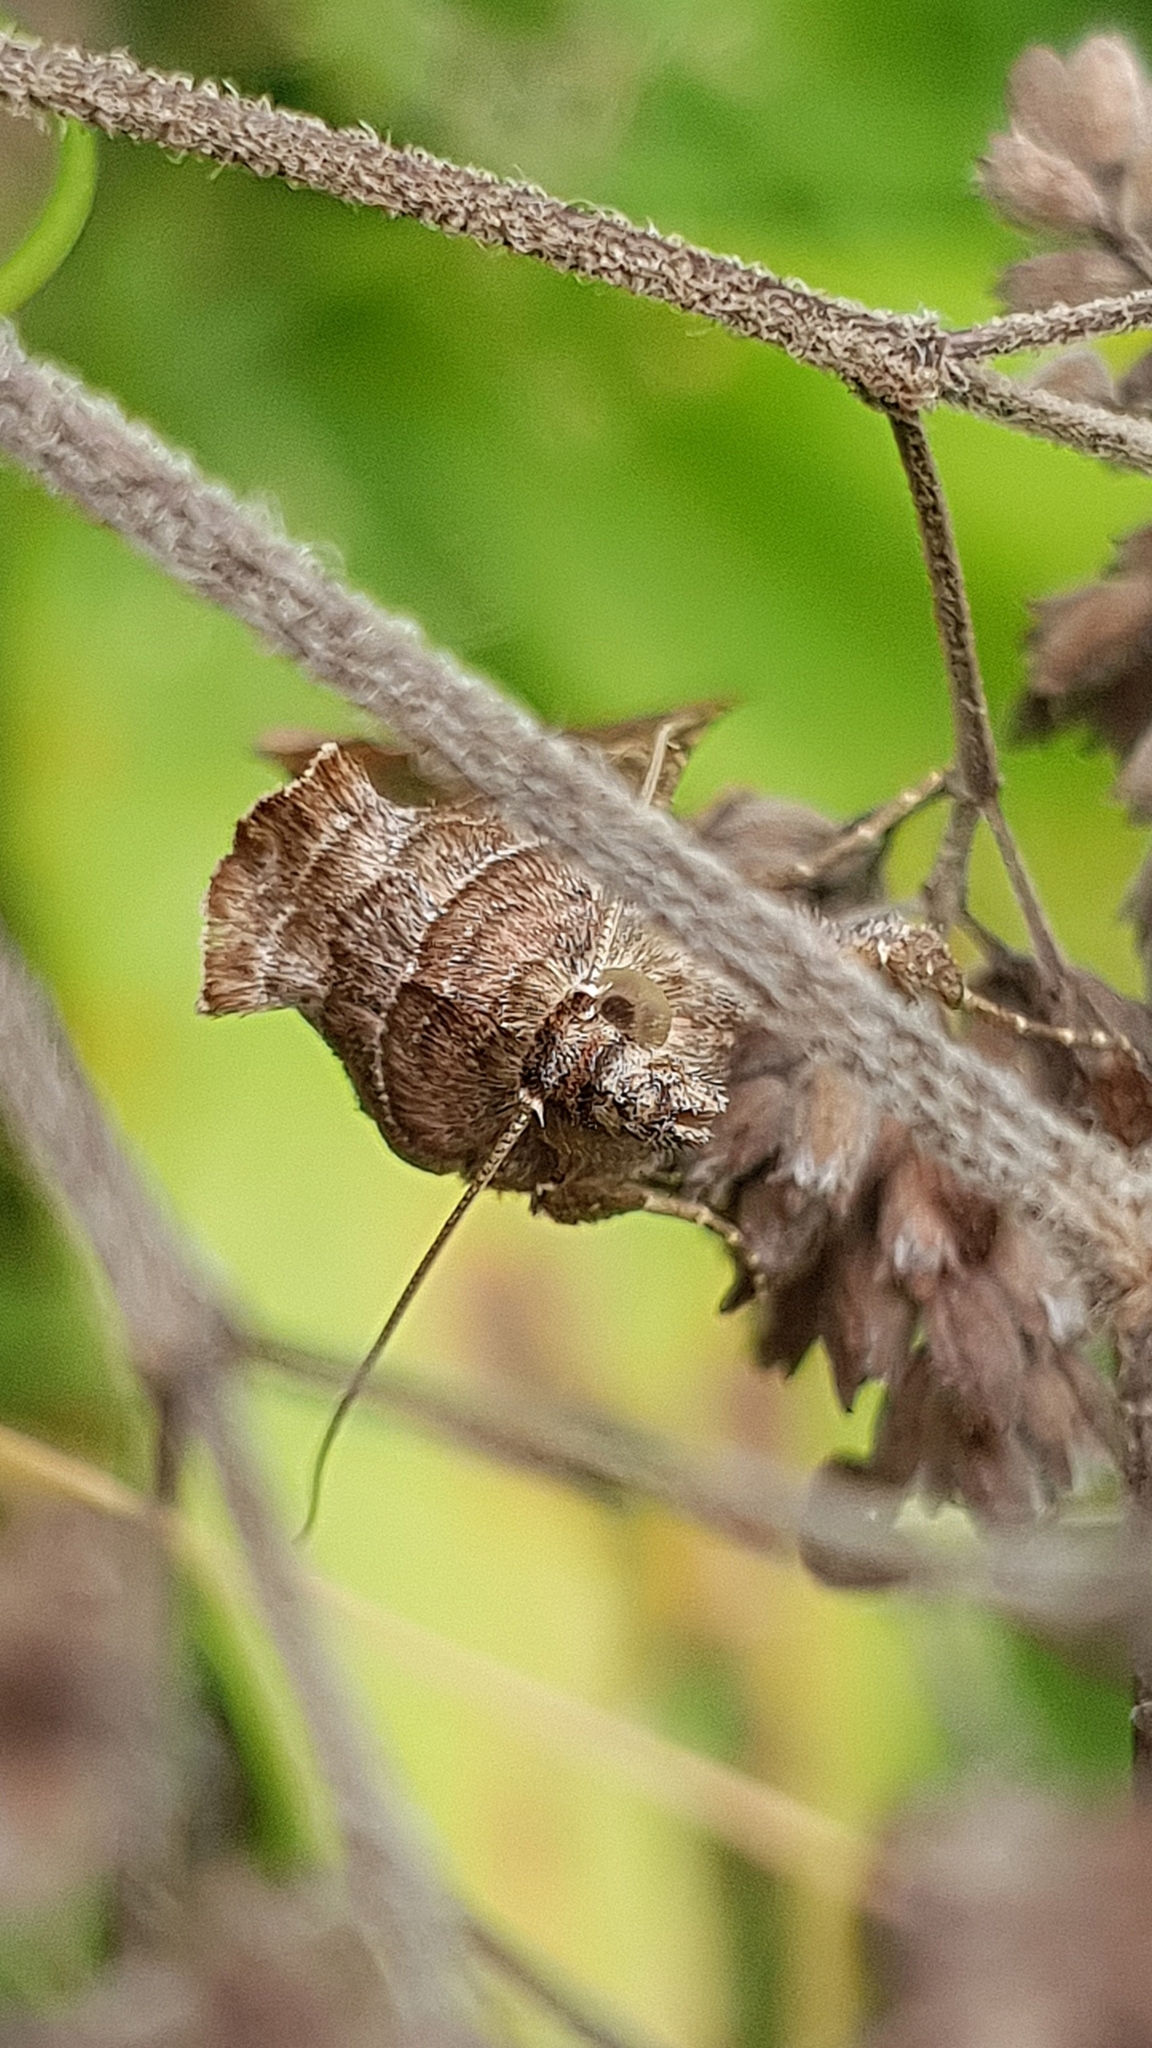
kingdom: Animalia
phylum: Arthropoda
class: Insecta
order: Lepidoptera
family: Noctuidae
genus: Autographa
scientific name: Autographa gamma
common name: Silver y
